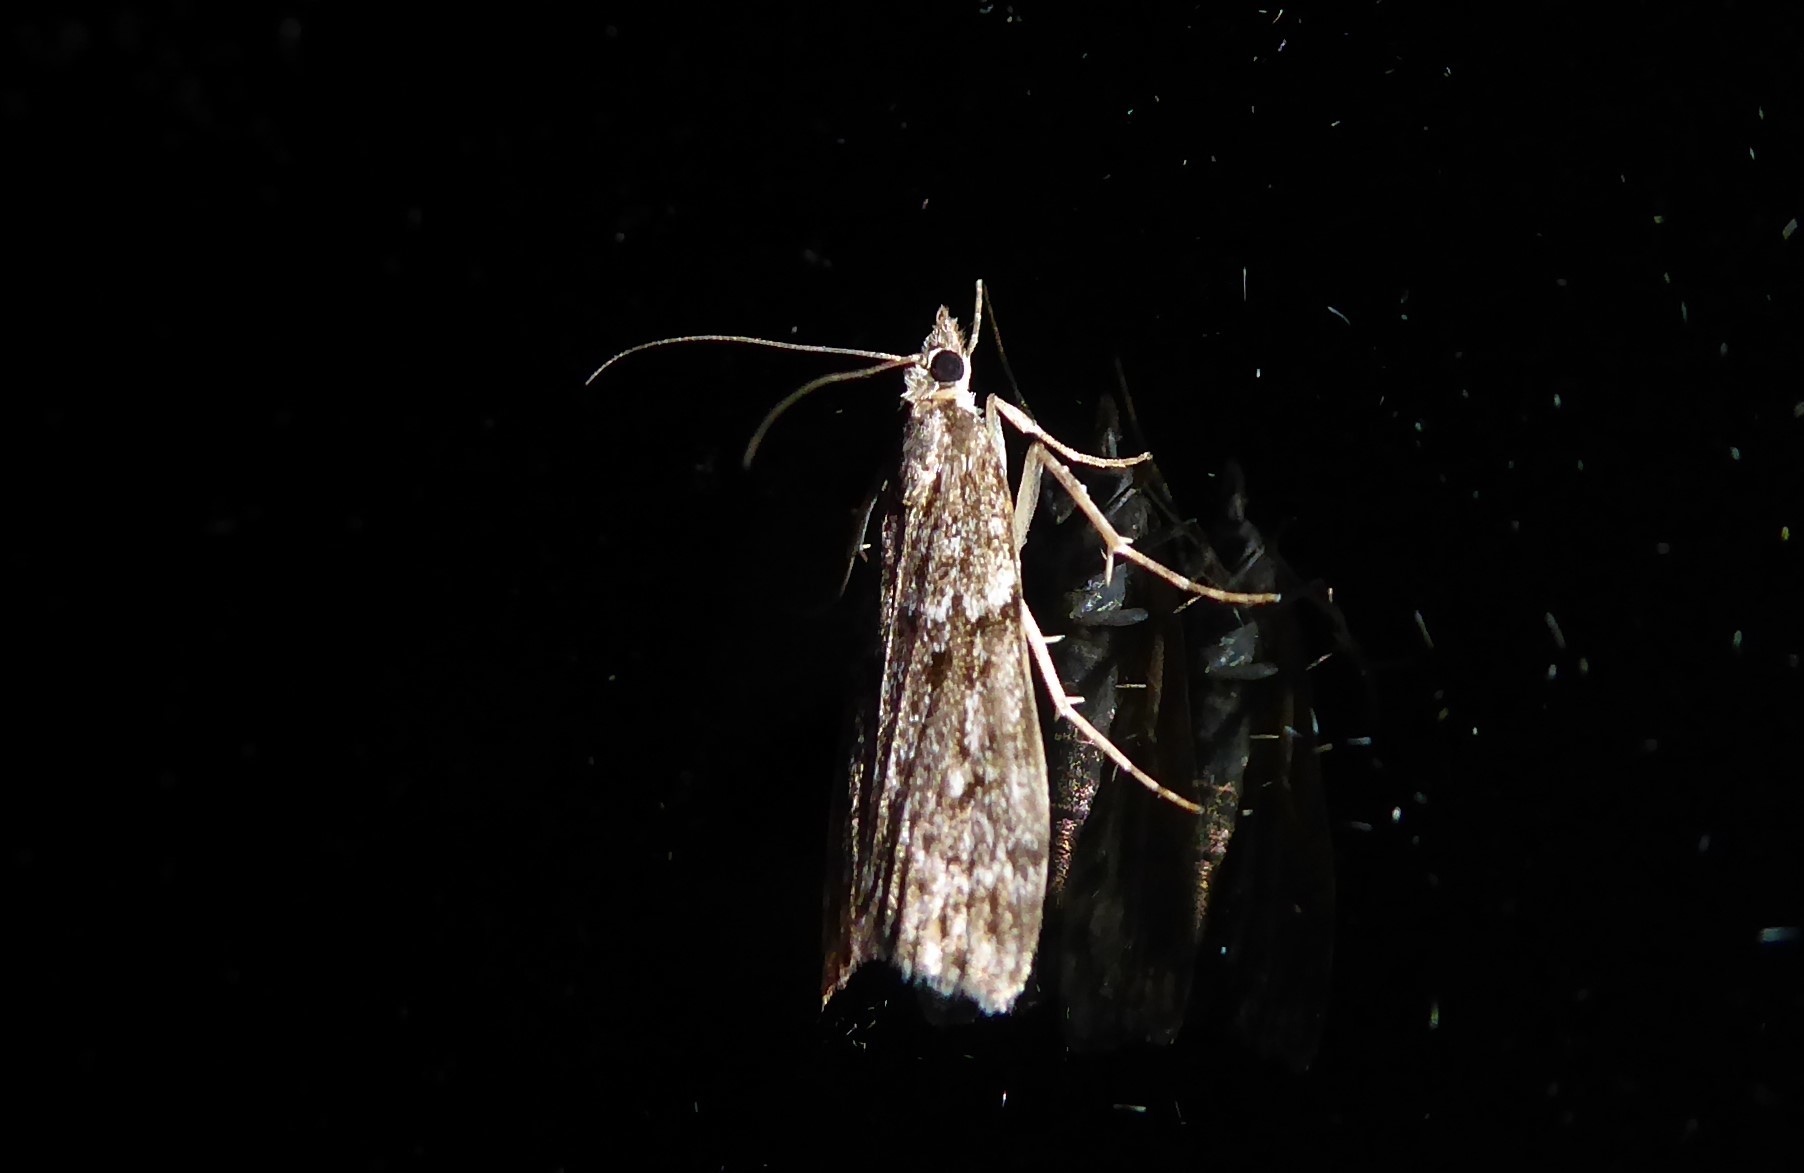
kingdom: Animalia
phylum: Arthropoda
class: Insecta
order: Lepidoptera
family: Crambidae
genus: Eudonia
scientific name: Eudonia cymatias
